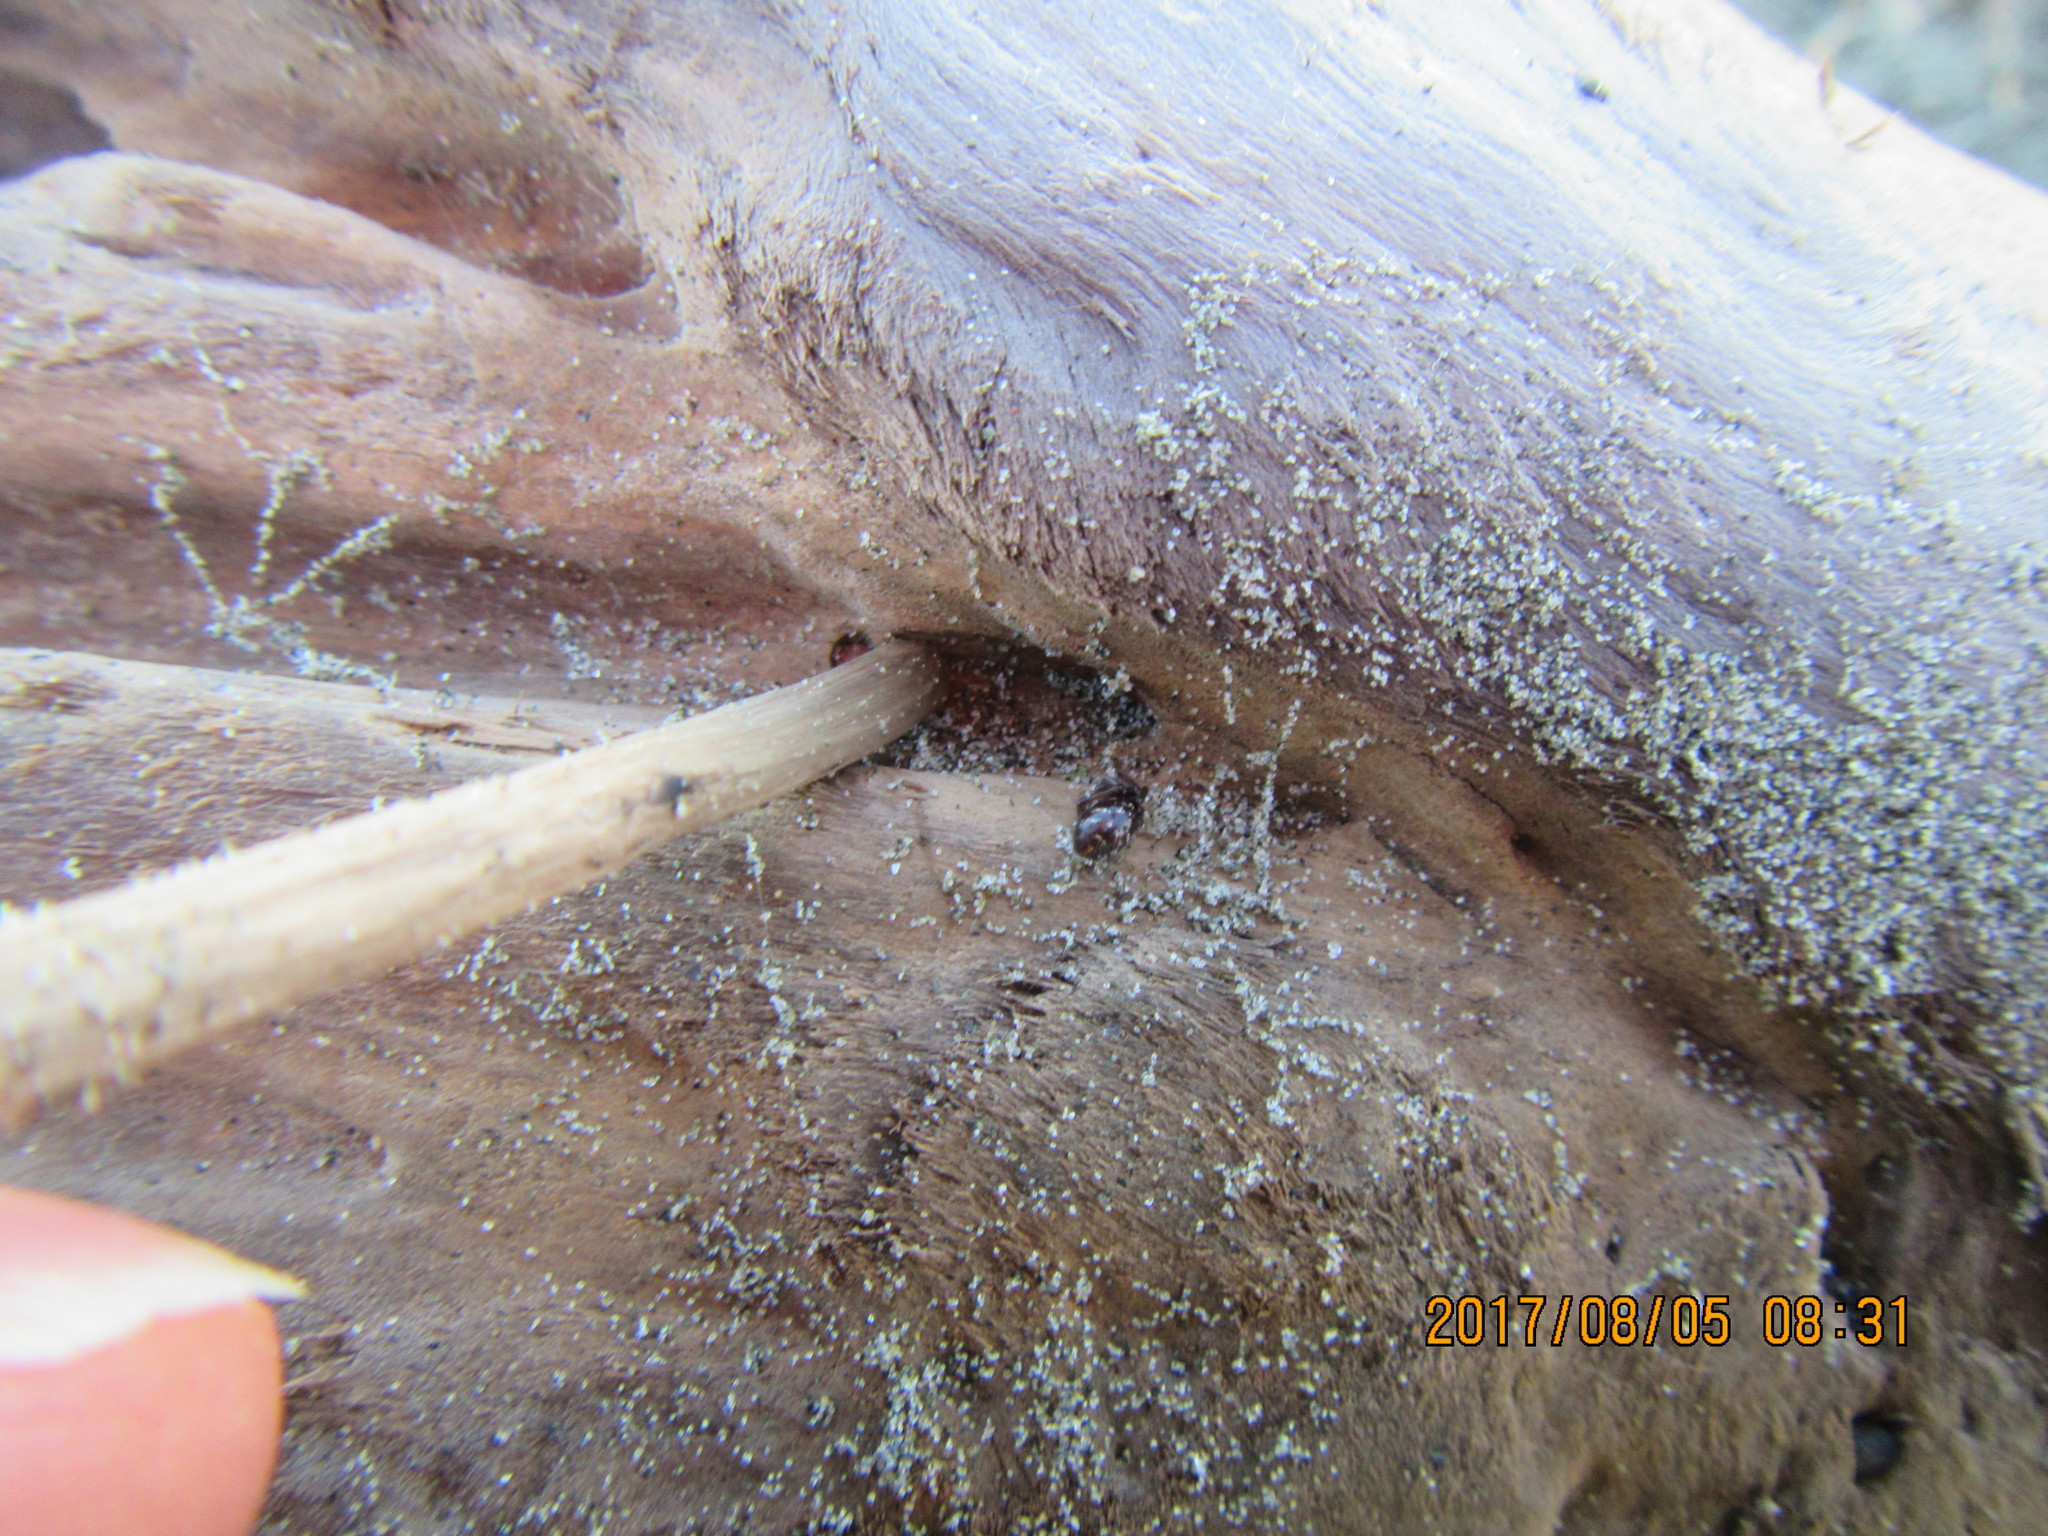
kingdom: Animalia
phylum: Arthropoda
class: Arachnida
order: Araneae
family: Theridiidae
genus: Steatoda
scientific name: Steatoda capensis
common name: Cobweb weaver
